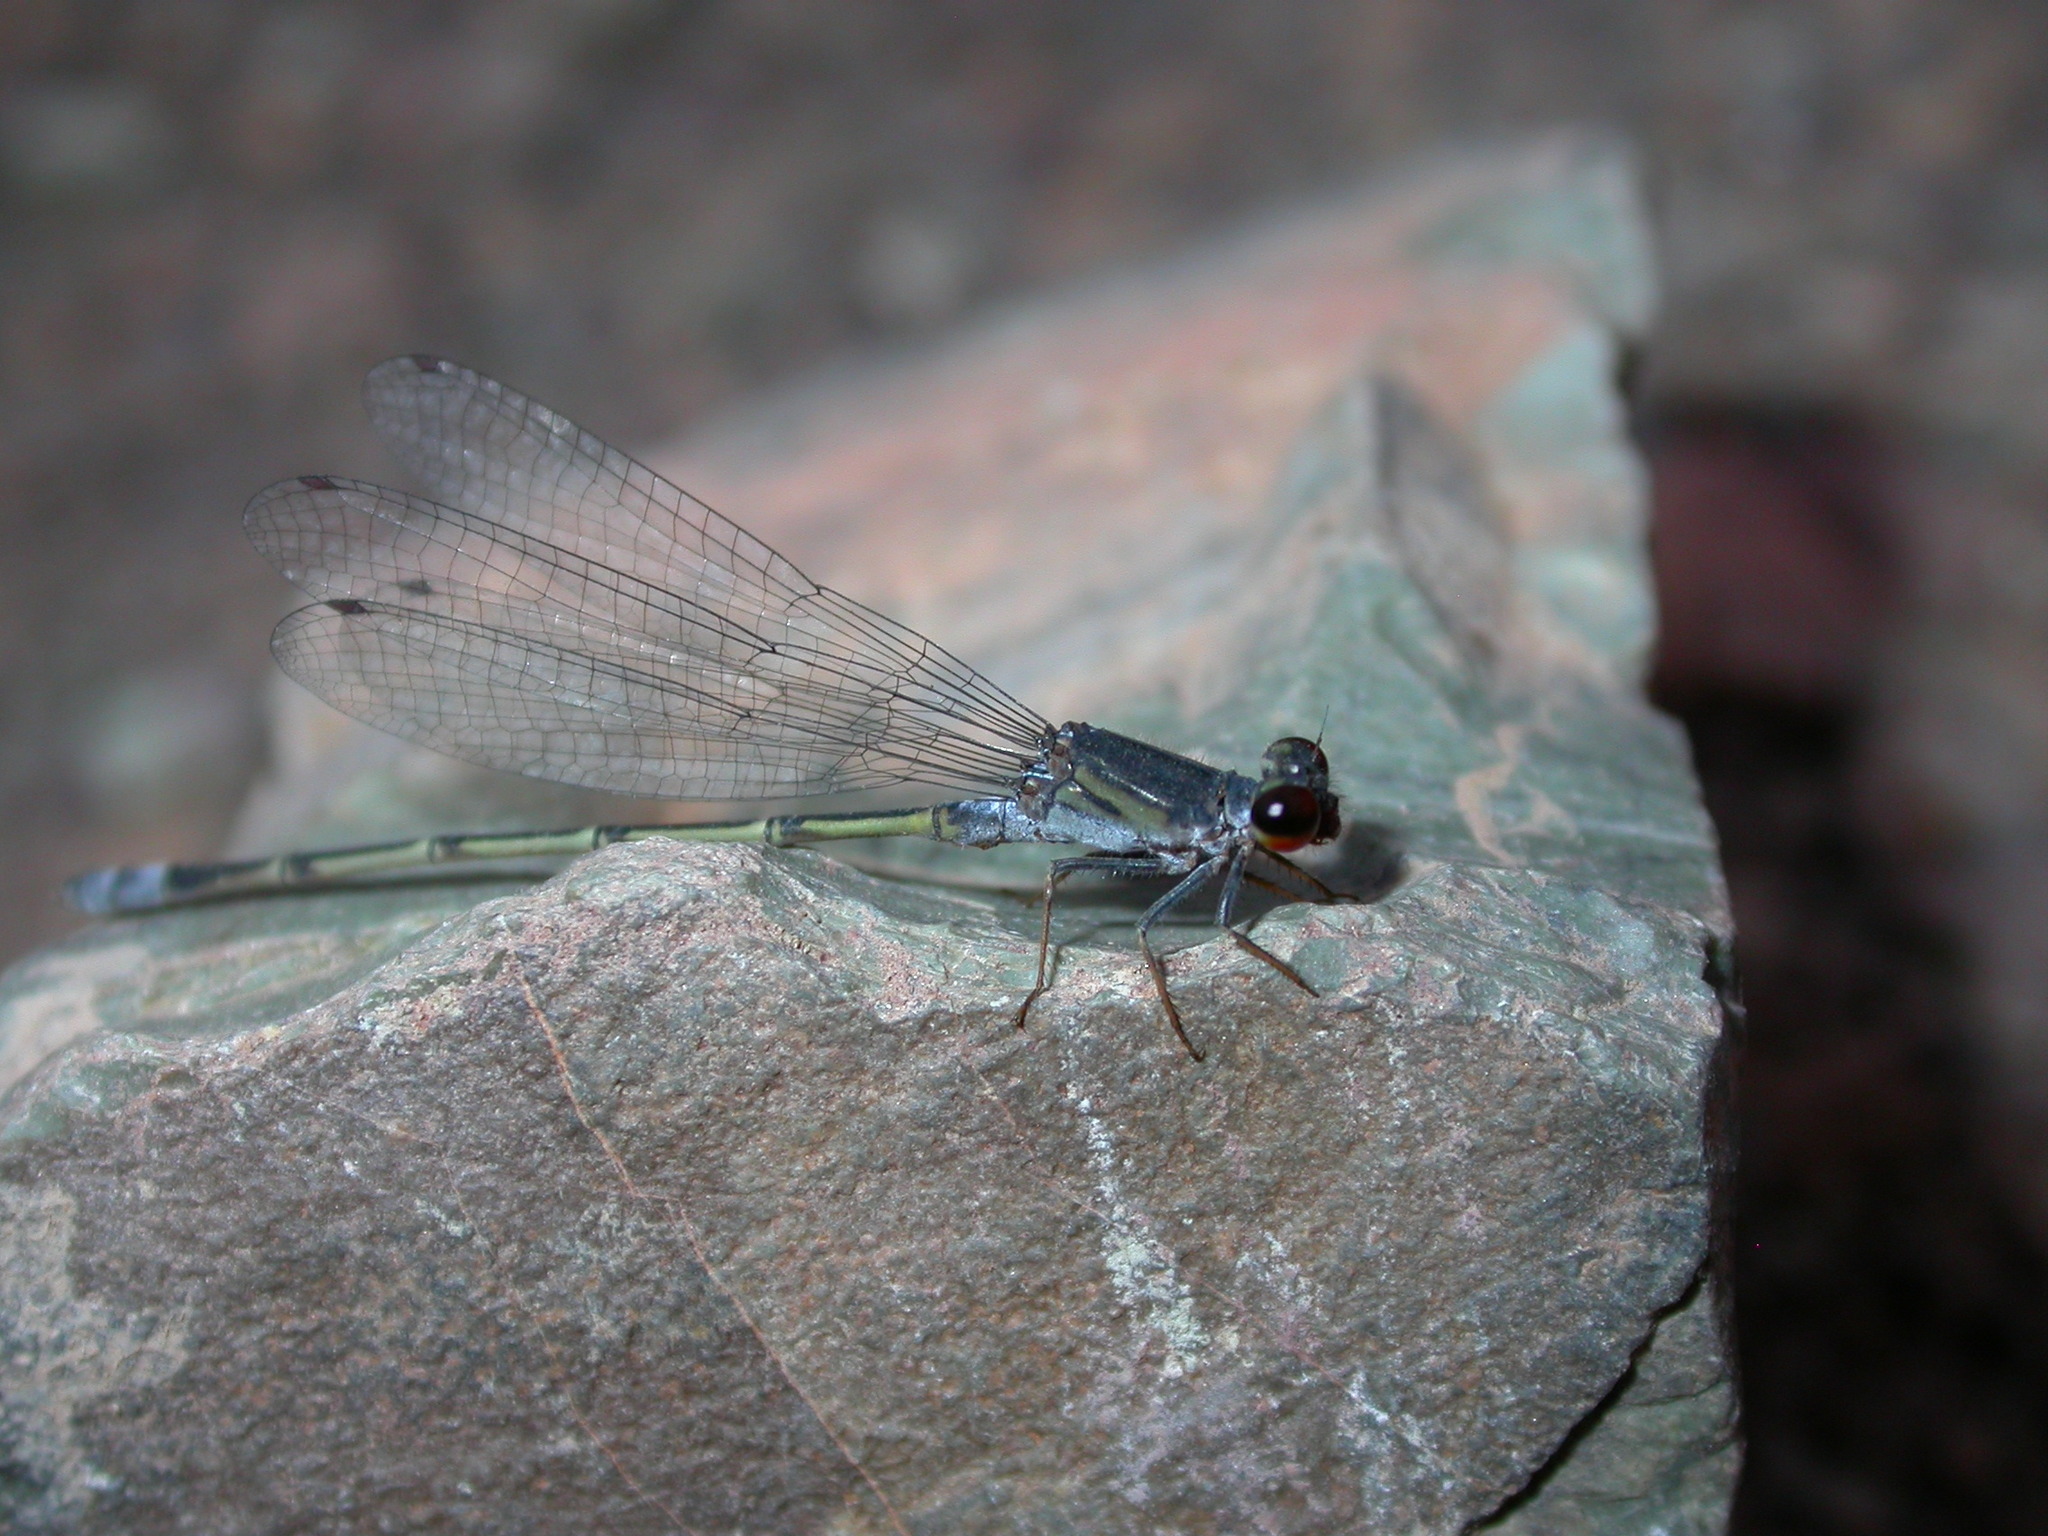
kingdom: Animalia
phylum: Arthropoda
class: Insecta
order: Odonata
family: Coenagrionidae
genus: Pseudagrion
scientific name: Pseudagrion hamoni
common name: Swarthy sprite
